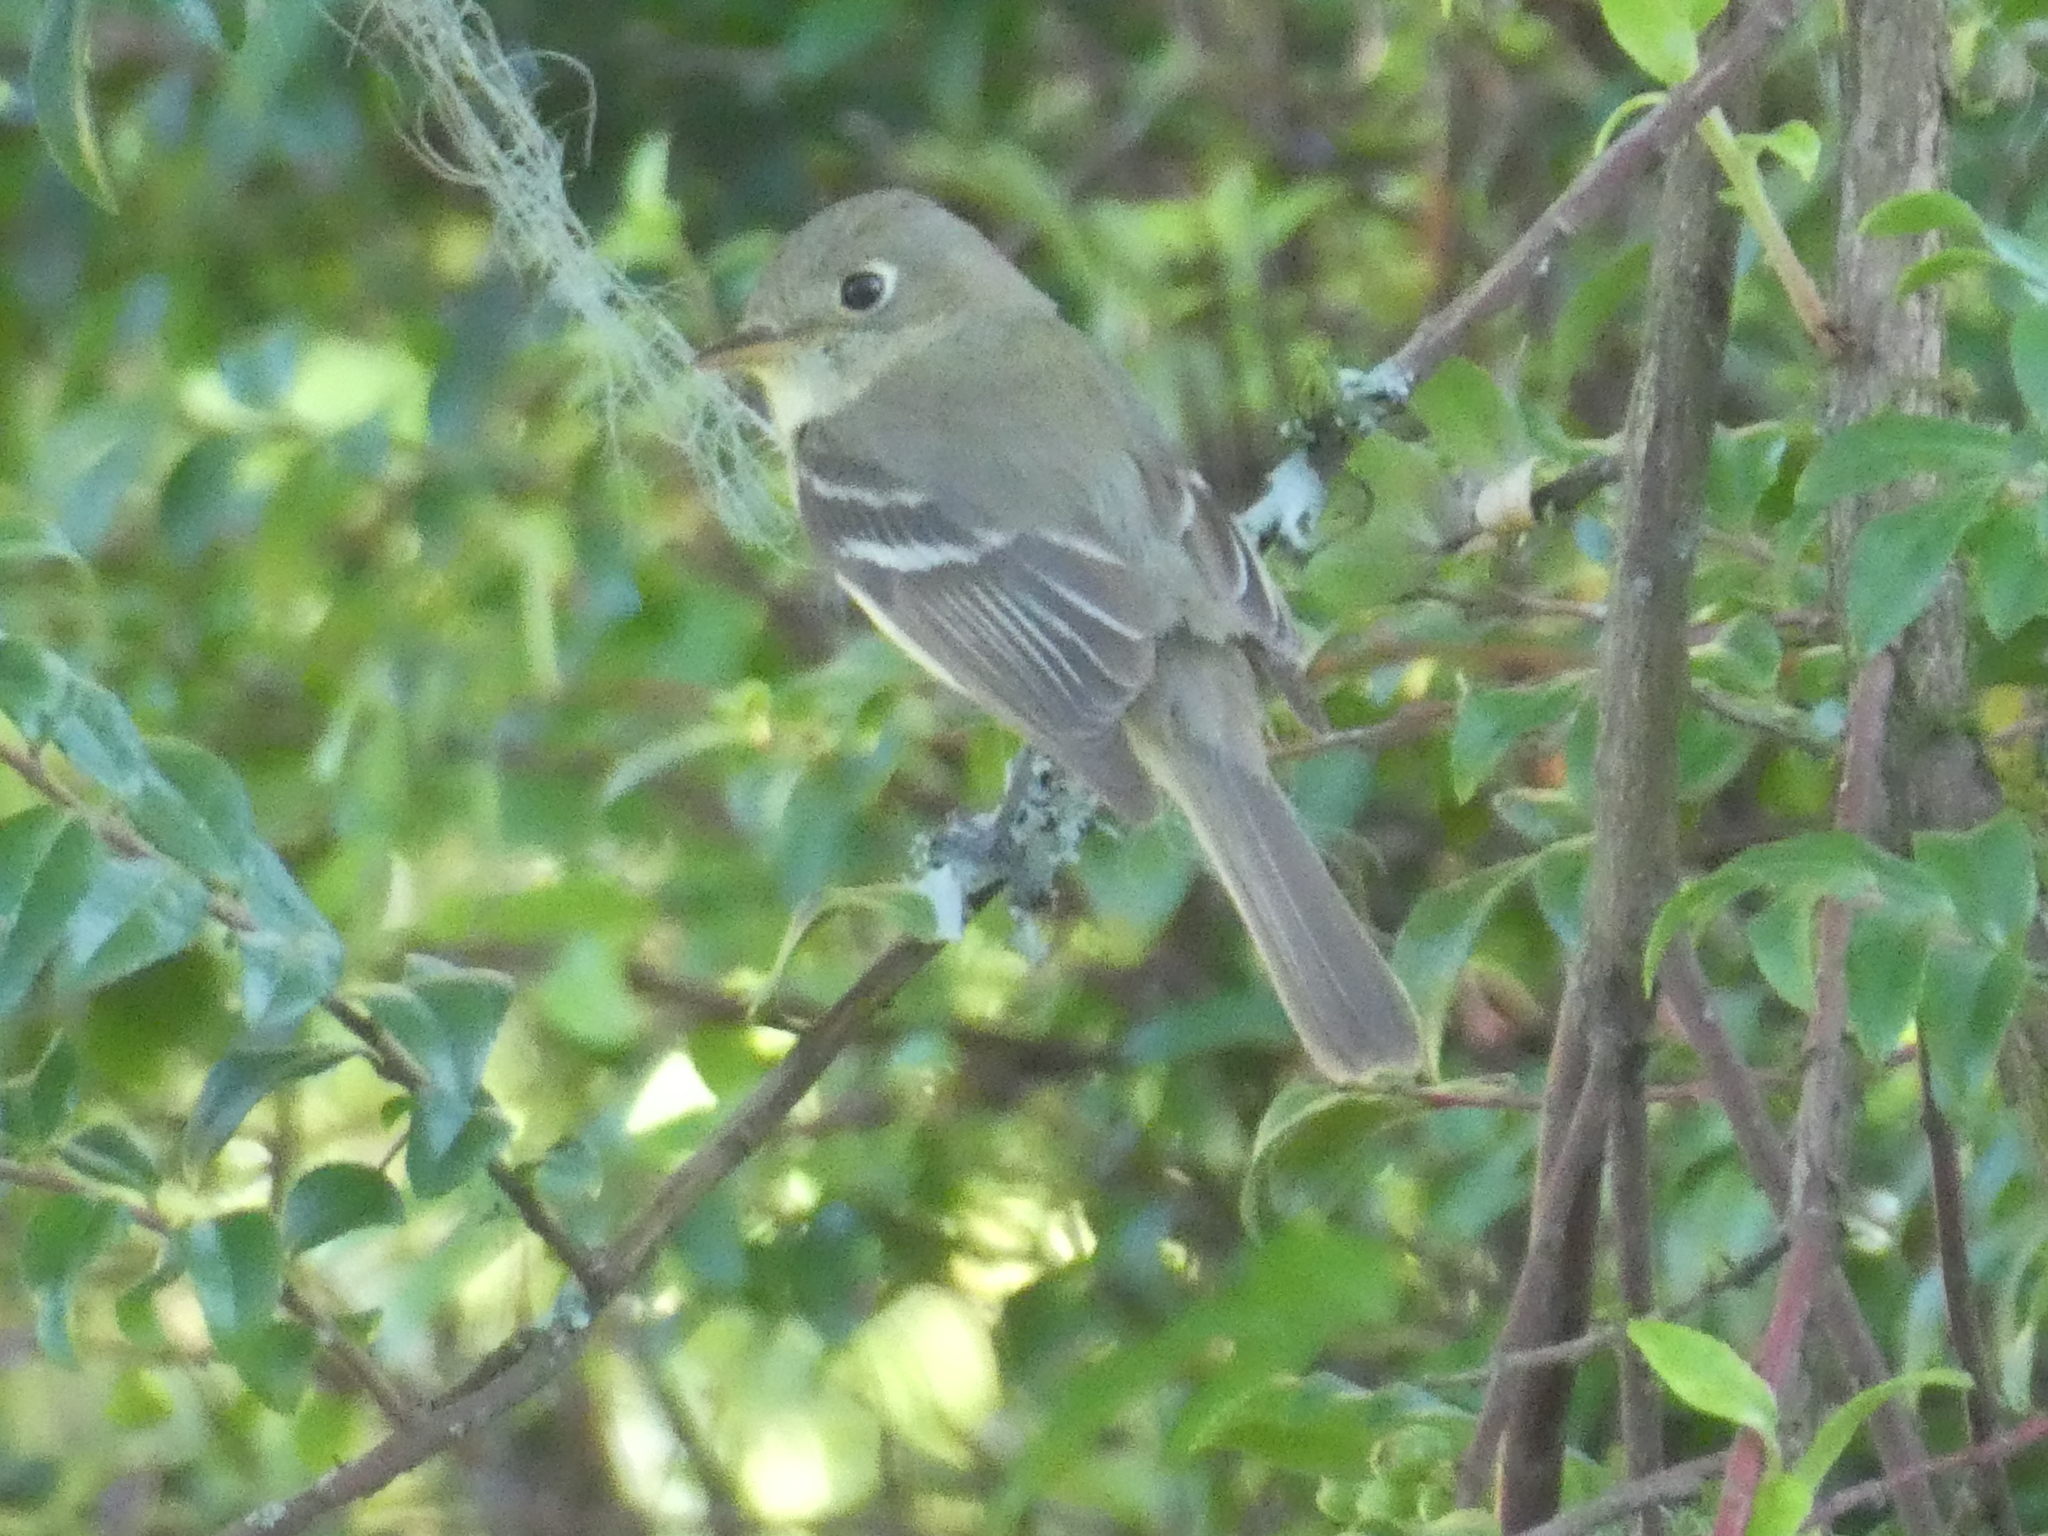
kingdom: Animalia
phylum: Chordata
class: Aves
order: Passeriformes
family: Tyrannidae
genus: Empidonax
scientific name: Empidonax difficilis
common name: Pacific-slope flycatcher
